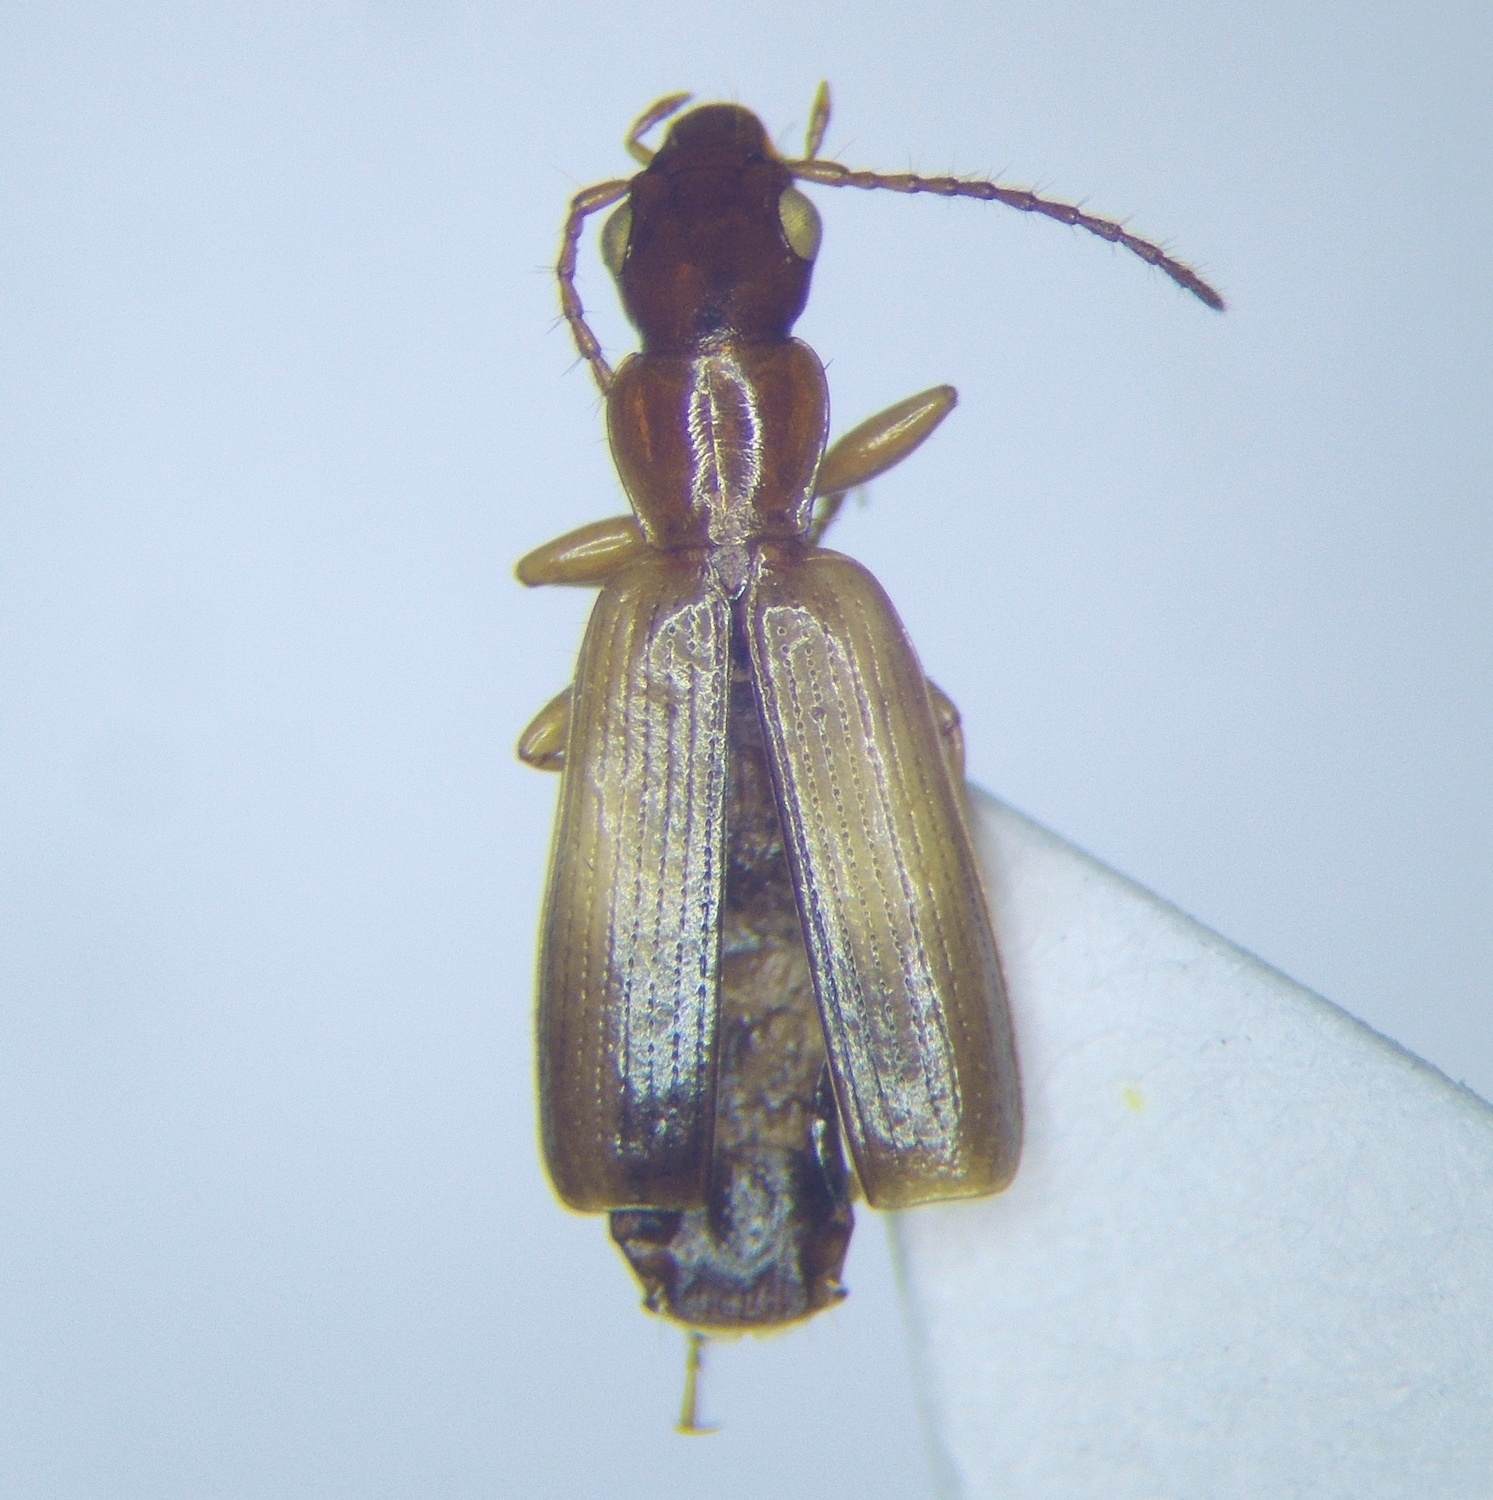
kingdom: Animalia
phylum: Arthropoda
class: Insecta
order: Coleoptera
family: Carabidae
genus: Paradromius
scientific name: Paradromius linearis
